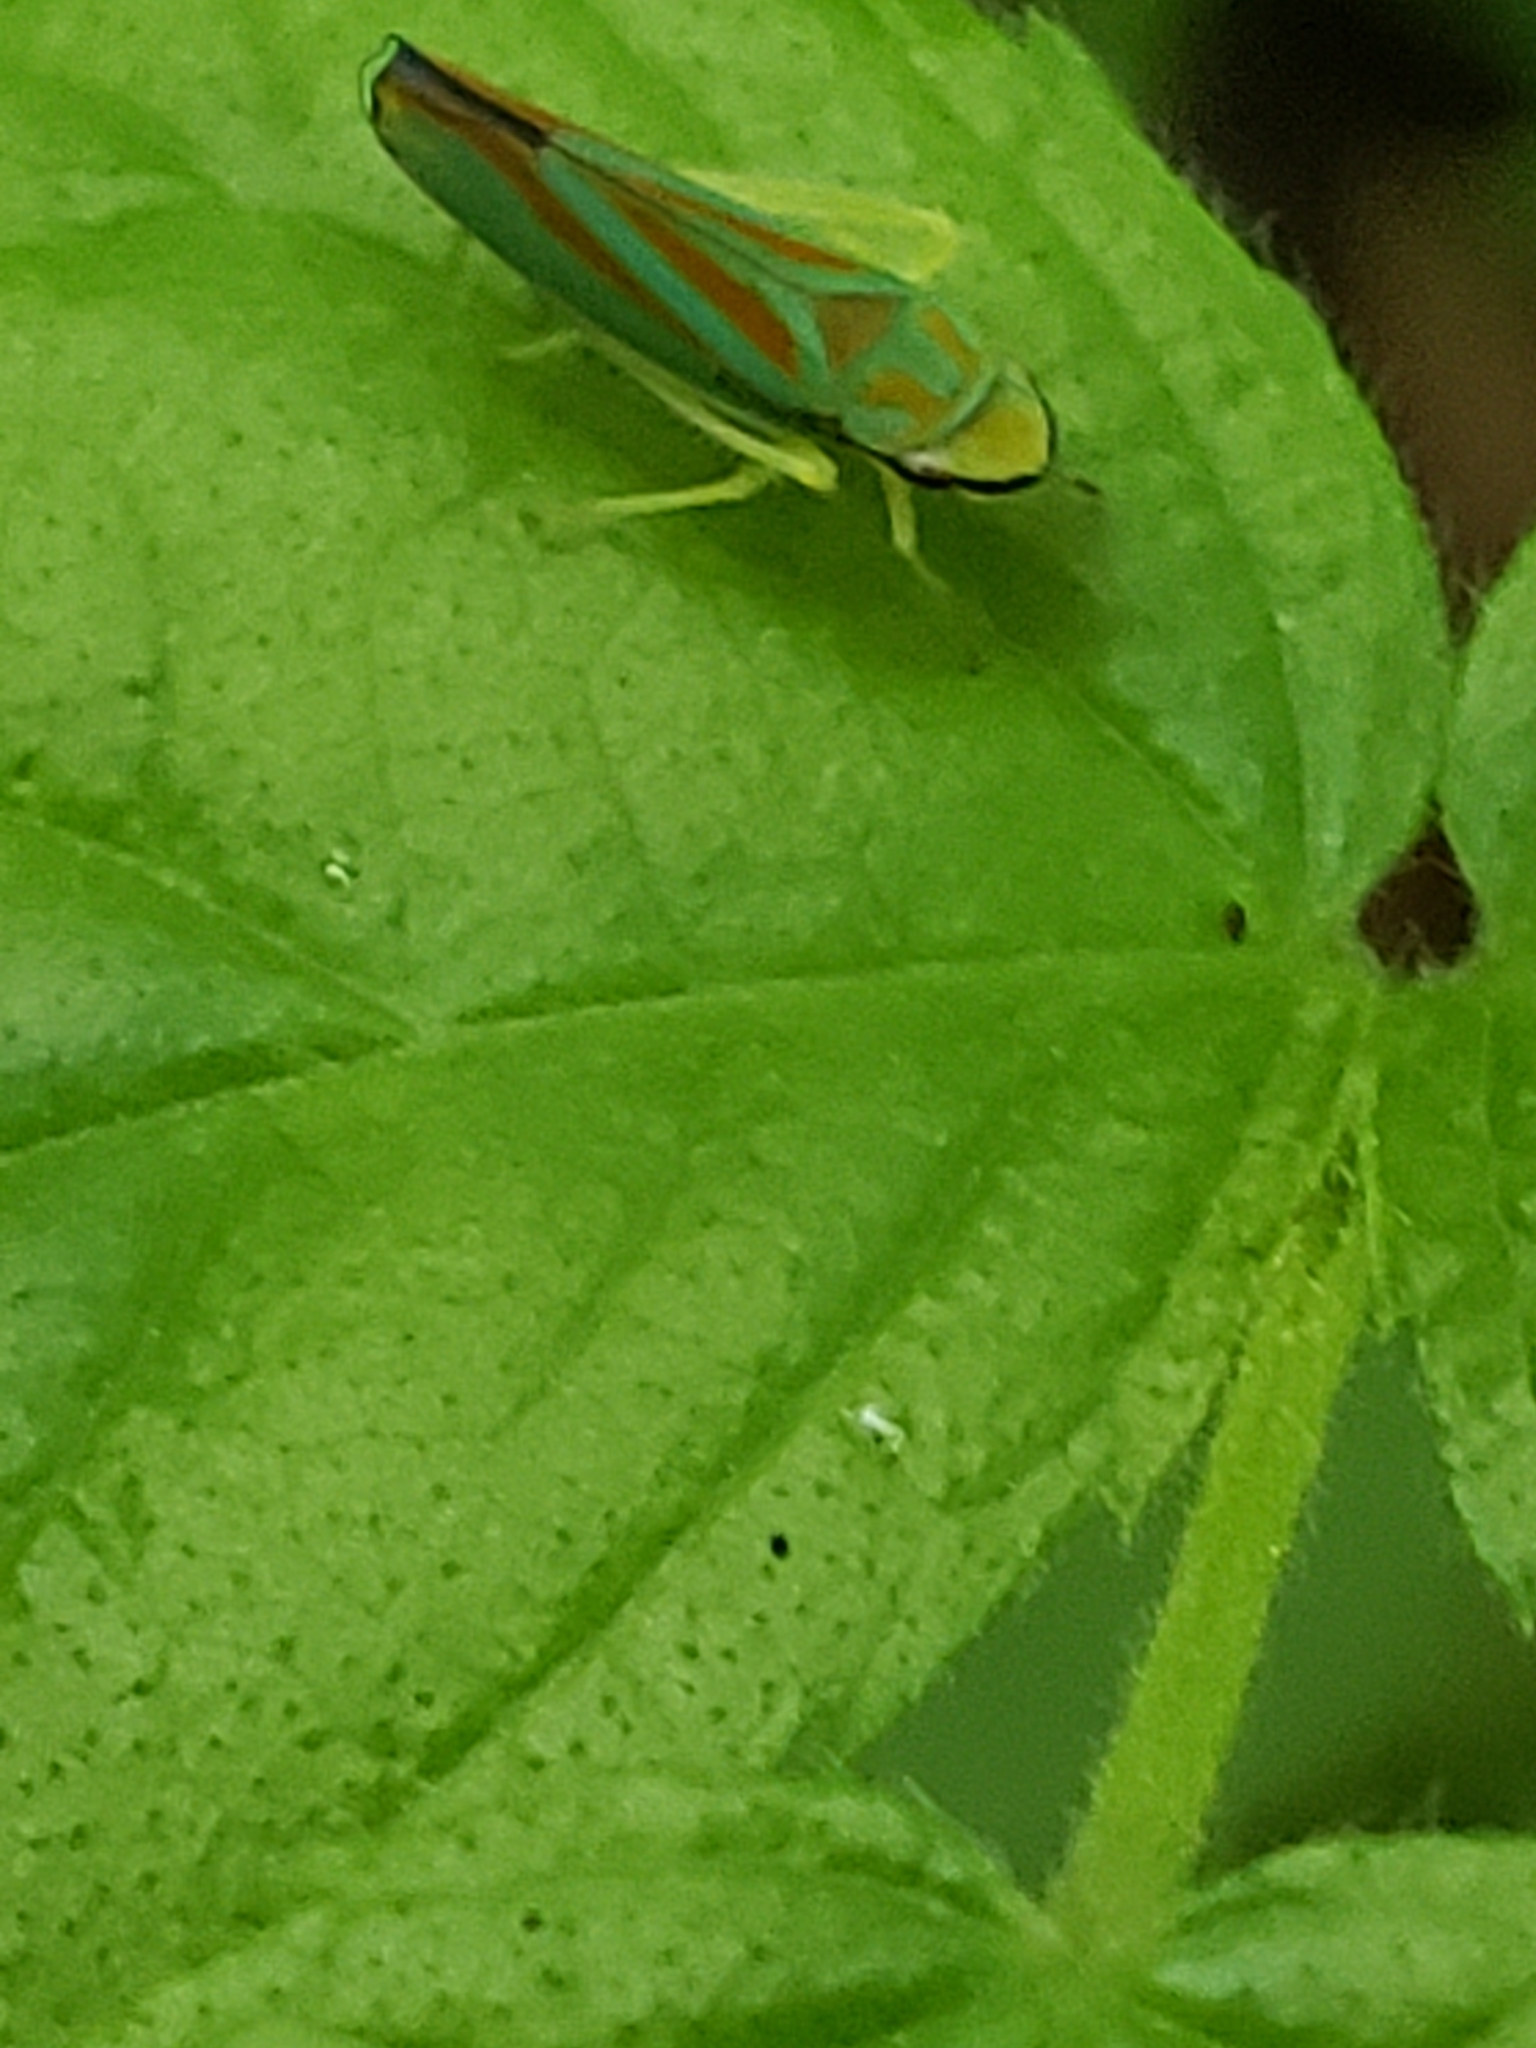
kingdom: Animalia
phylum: Arthropoda
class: Insecta
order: Hemiptera
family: Cicadellidae
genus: Graphocephala
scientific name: Graphocephala fennahi
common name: Rhododendron leafhopper
